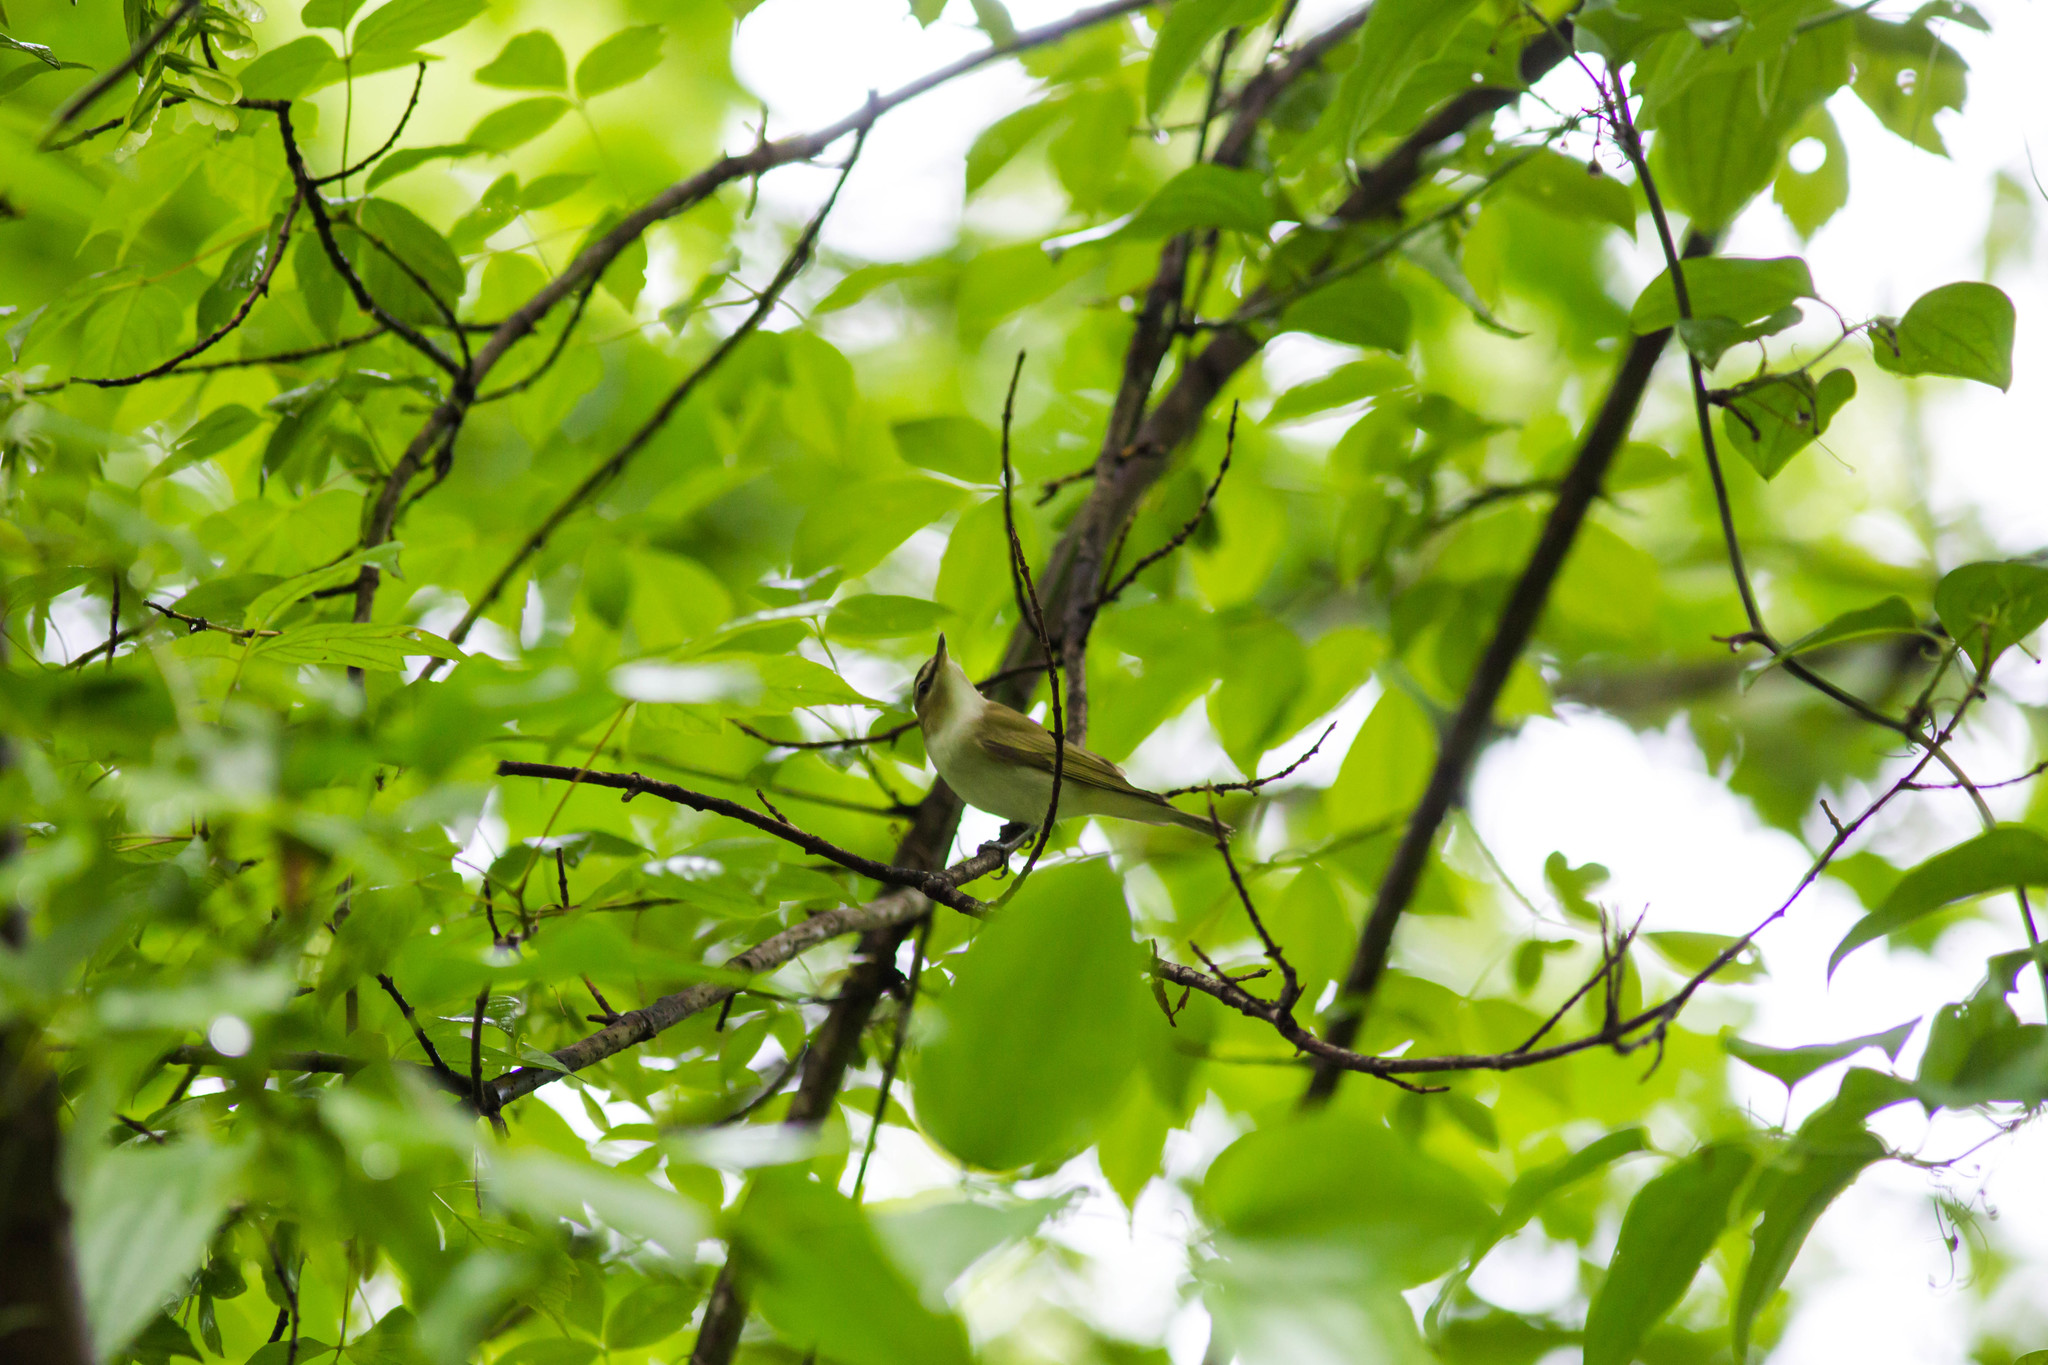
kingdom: Animalia
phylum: Chordata
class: Aves
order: Passeriformes
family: Vireonidae
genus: Vireo
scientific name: Vireo olivaceus
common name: Red-eyed vireo
